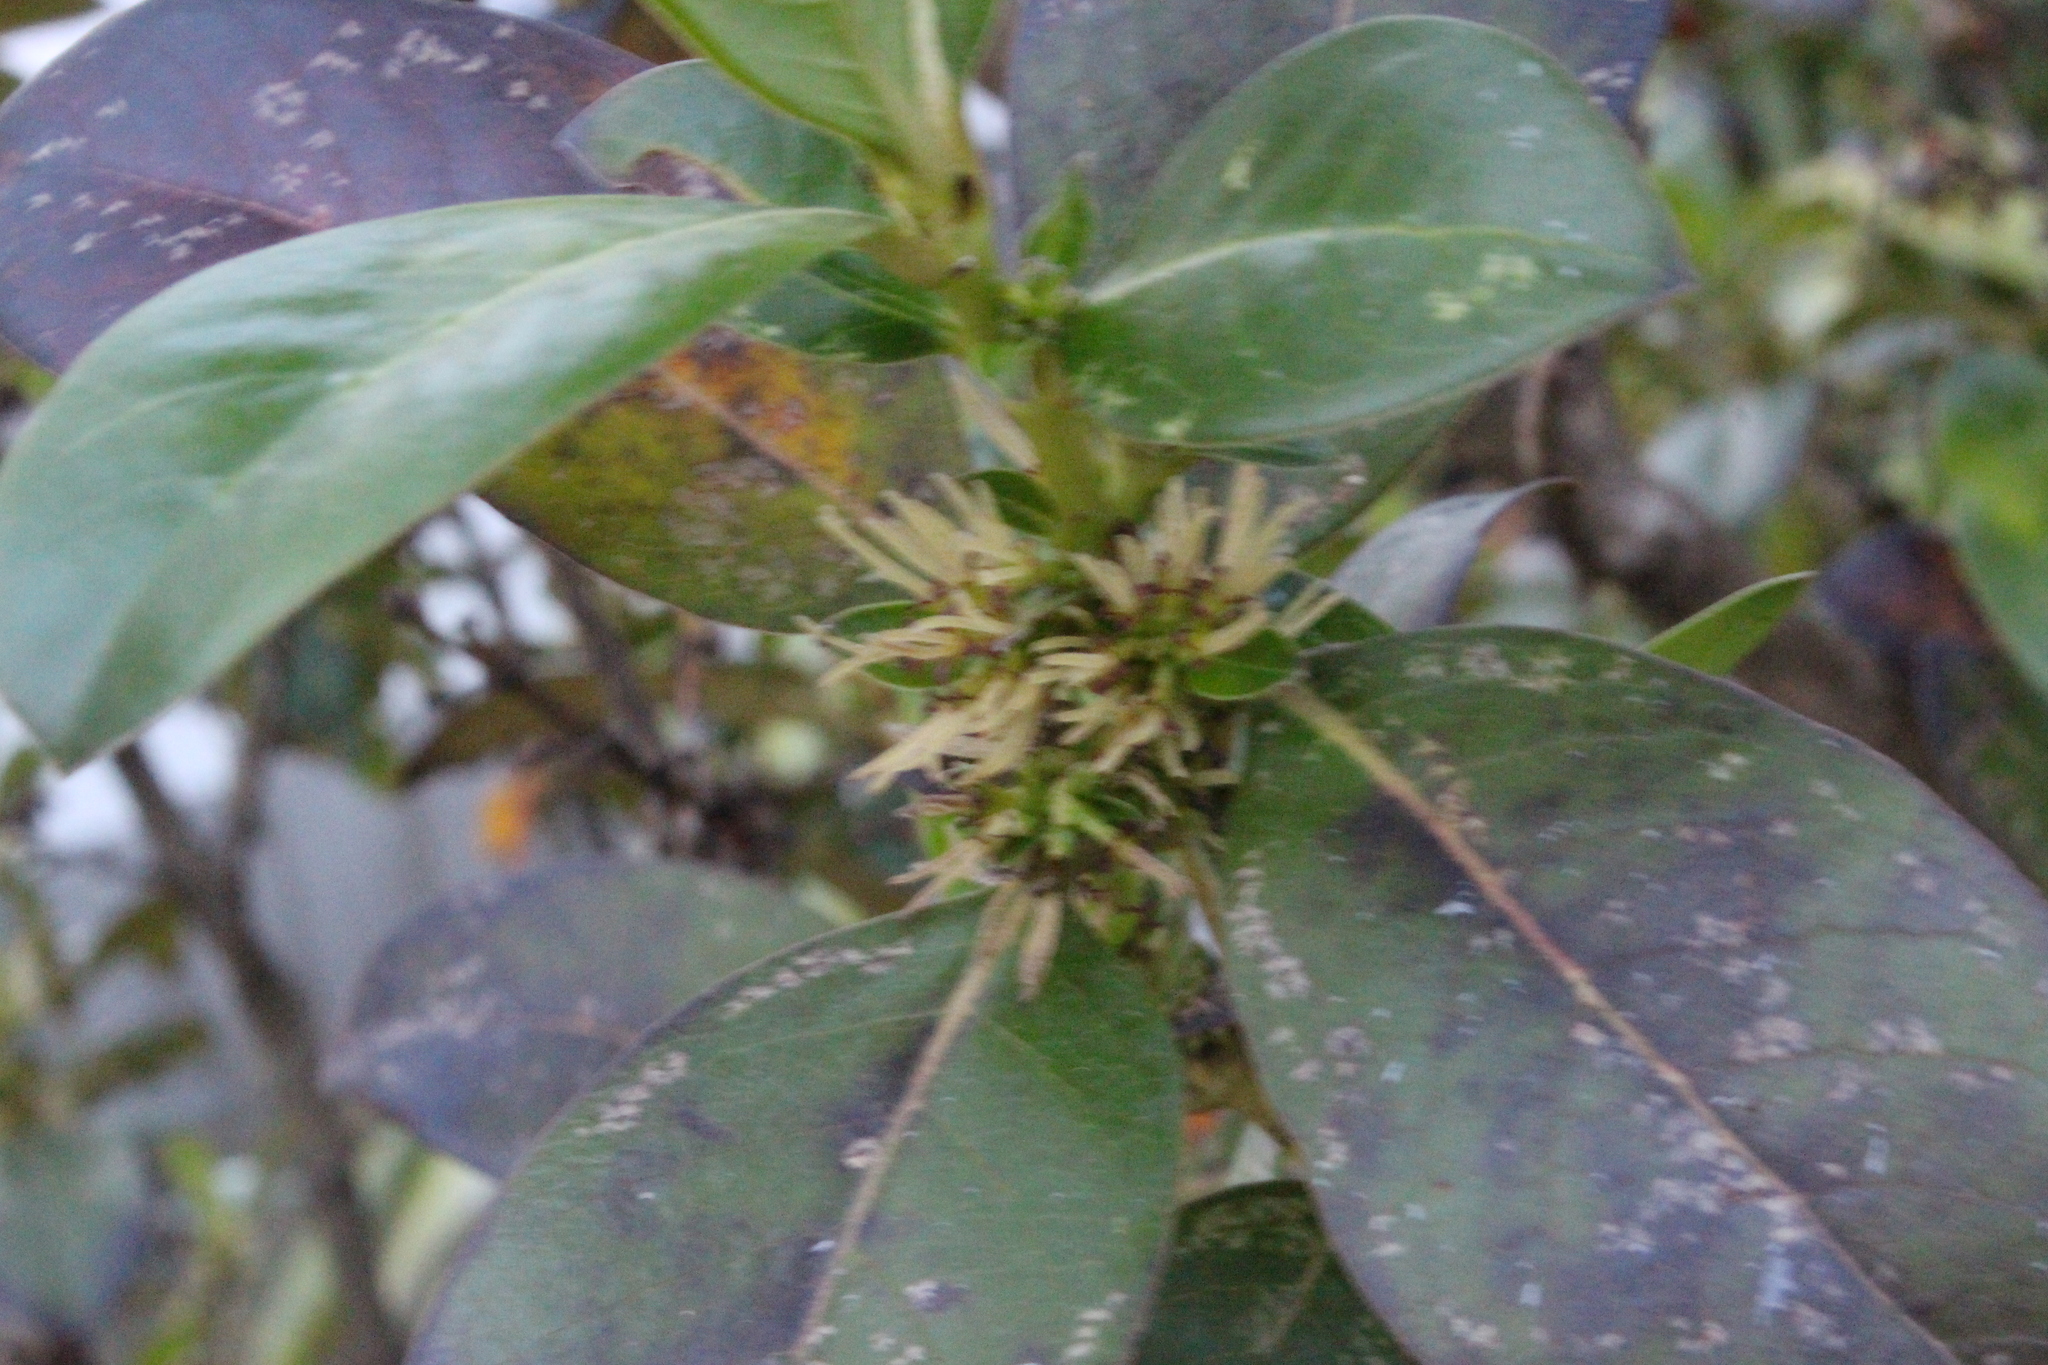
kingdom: Plantae
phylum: Tracheophyta
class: Magnoliopsida
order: Gentianales
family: Rubiaceae
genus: Coprosma
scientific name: Coprosma robusta
